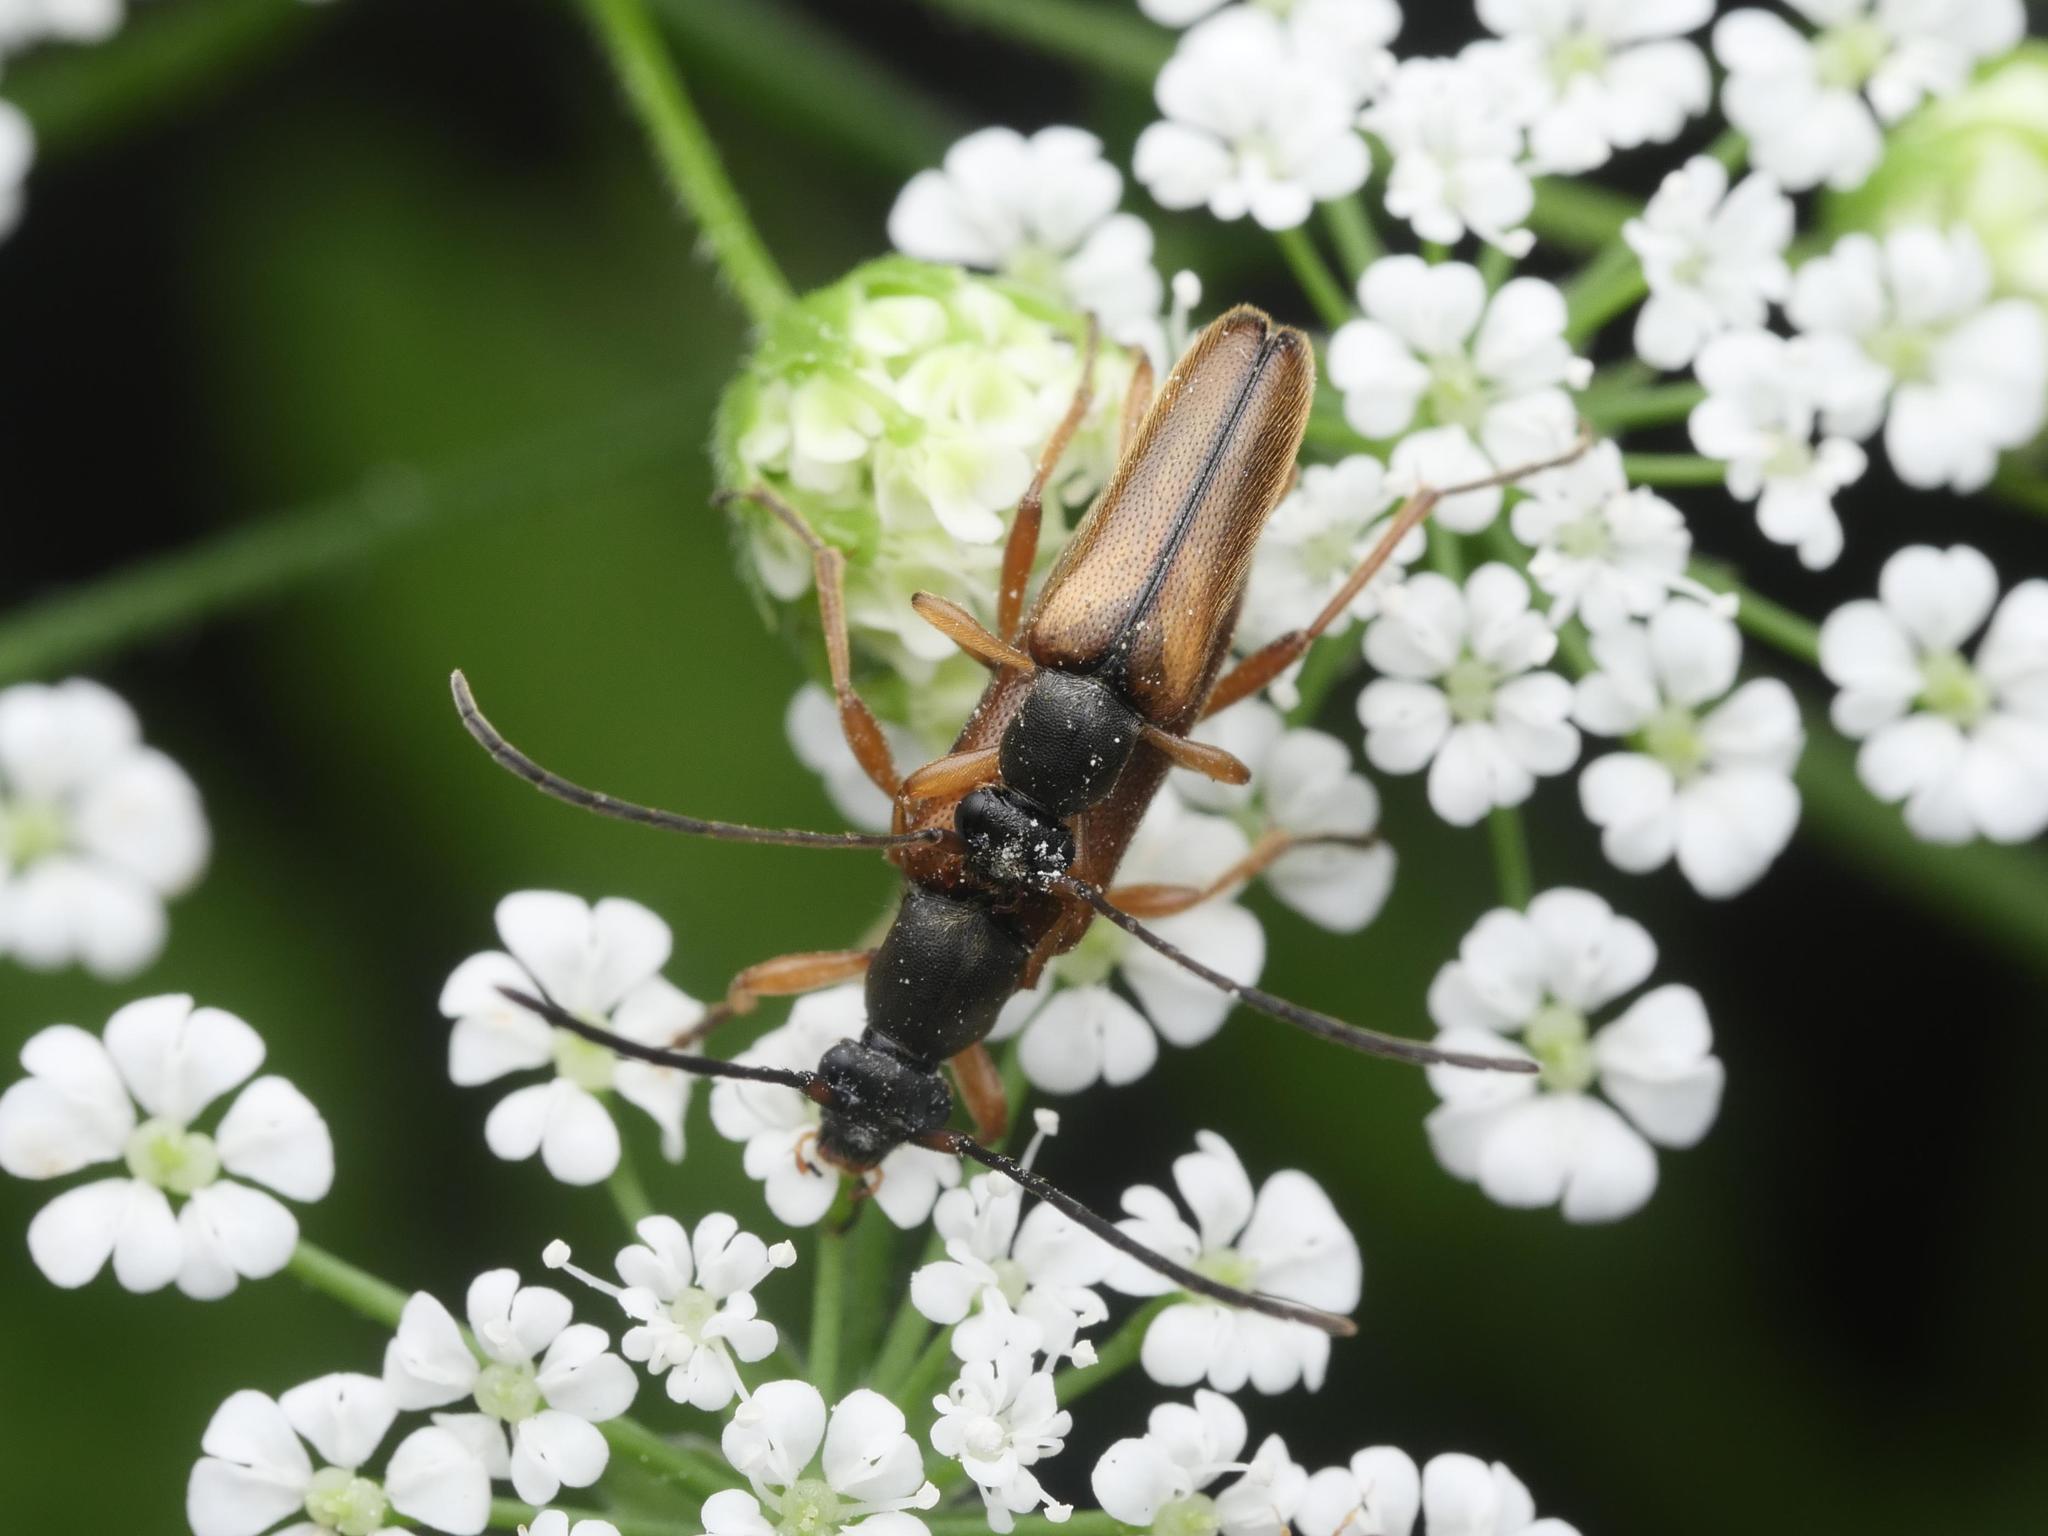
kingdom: Animalia
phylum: Arthropoda
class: Insecta
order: Coleoptera
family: Cerambycidae
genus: Alosterna
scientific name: Alosterna tabacicolor
